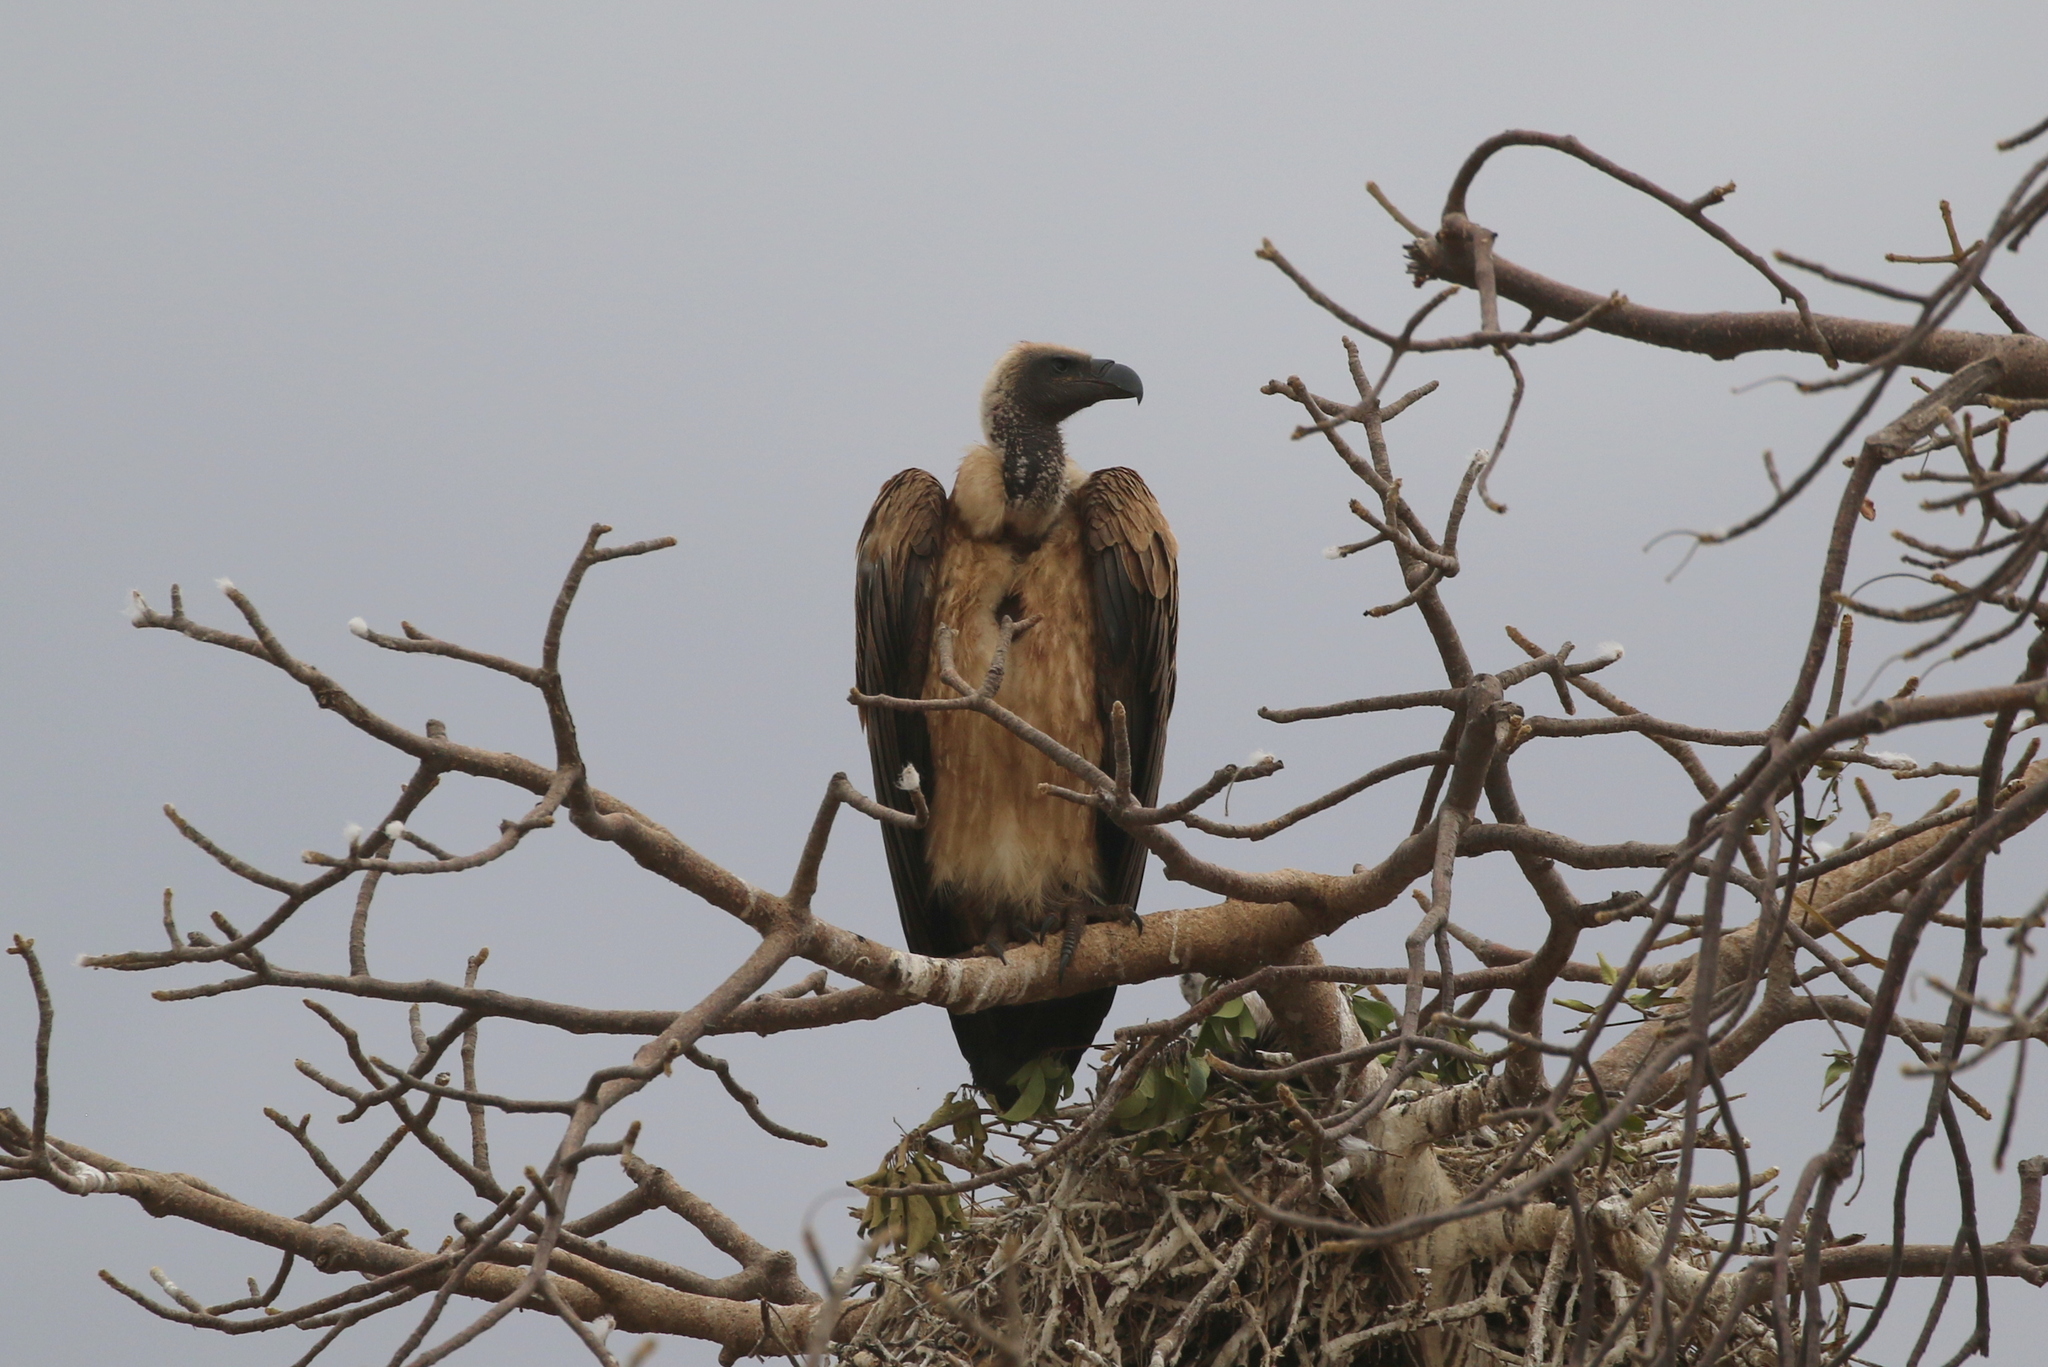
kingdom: Animalia
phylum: Chordata
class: Aves
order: Accipitriformes
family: Accipitridae
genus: Gyps
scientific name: Gyps africanus
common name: White-backed vulture
